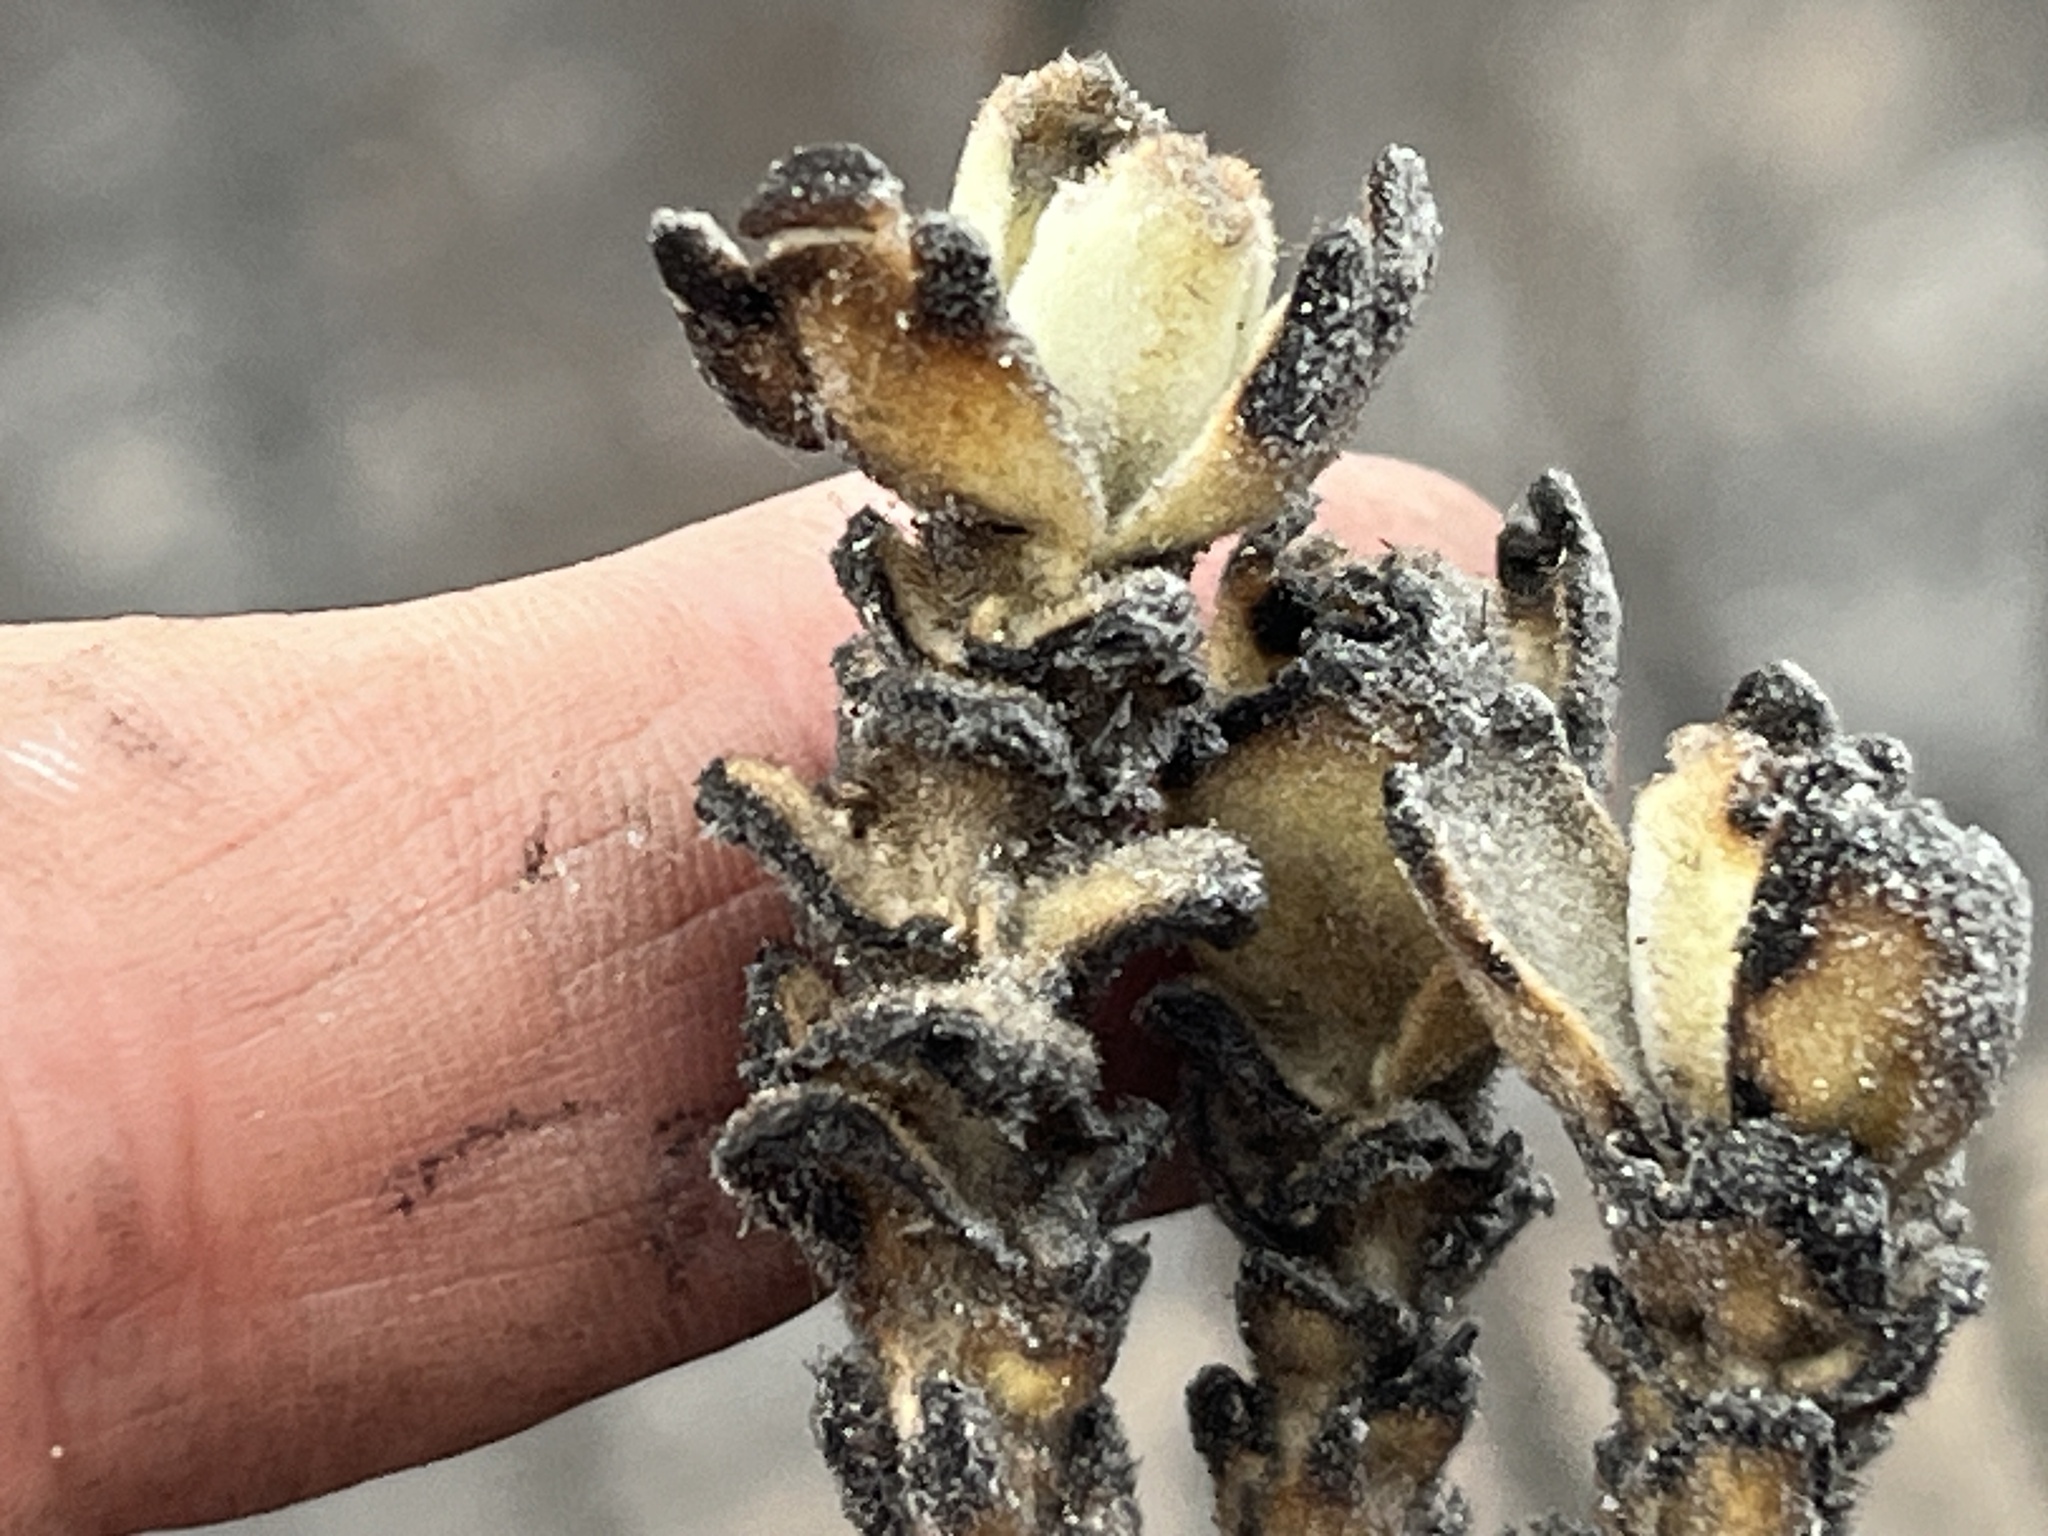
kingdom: Plantae
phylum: Tracheophyta
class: Magnoliopsida
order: Proteales
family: Proteaceae
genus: Mimetes
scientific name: Mimetes saxatilis
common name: Limestone pagoda
